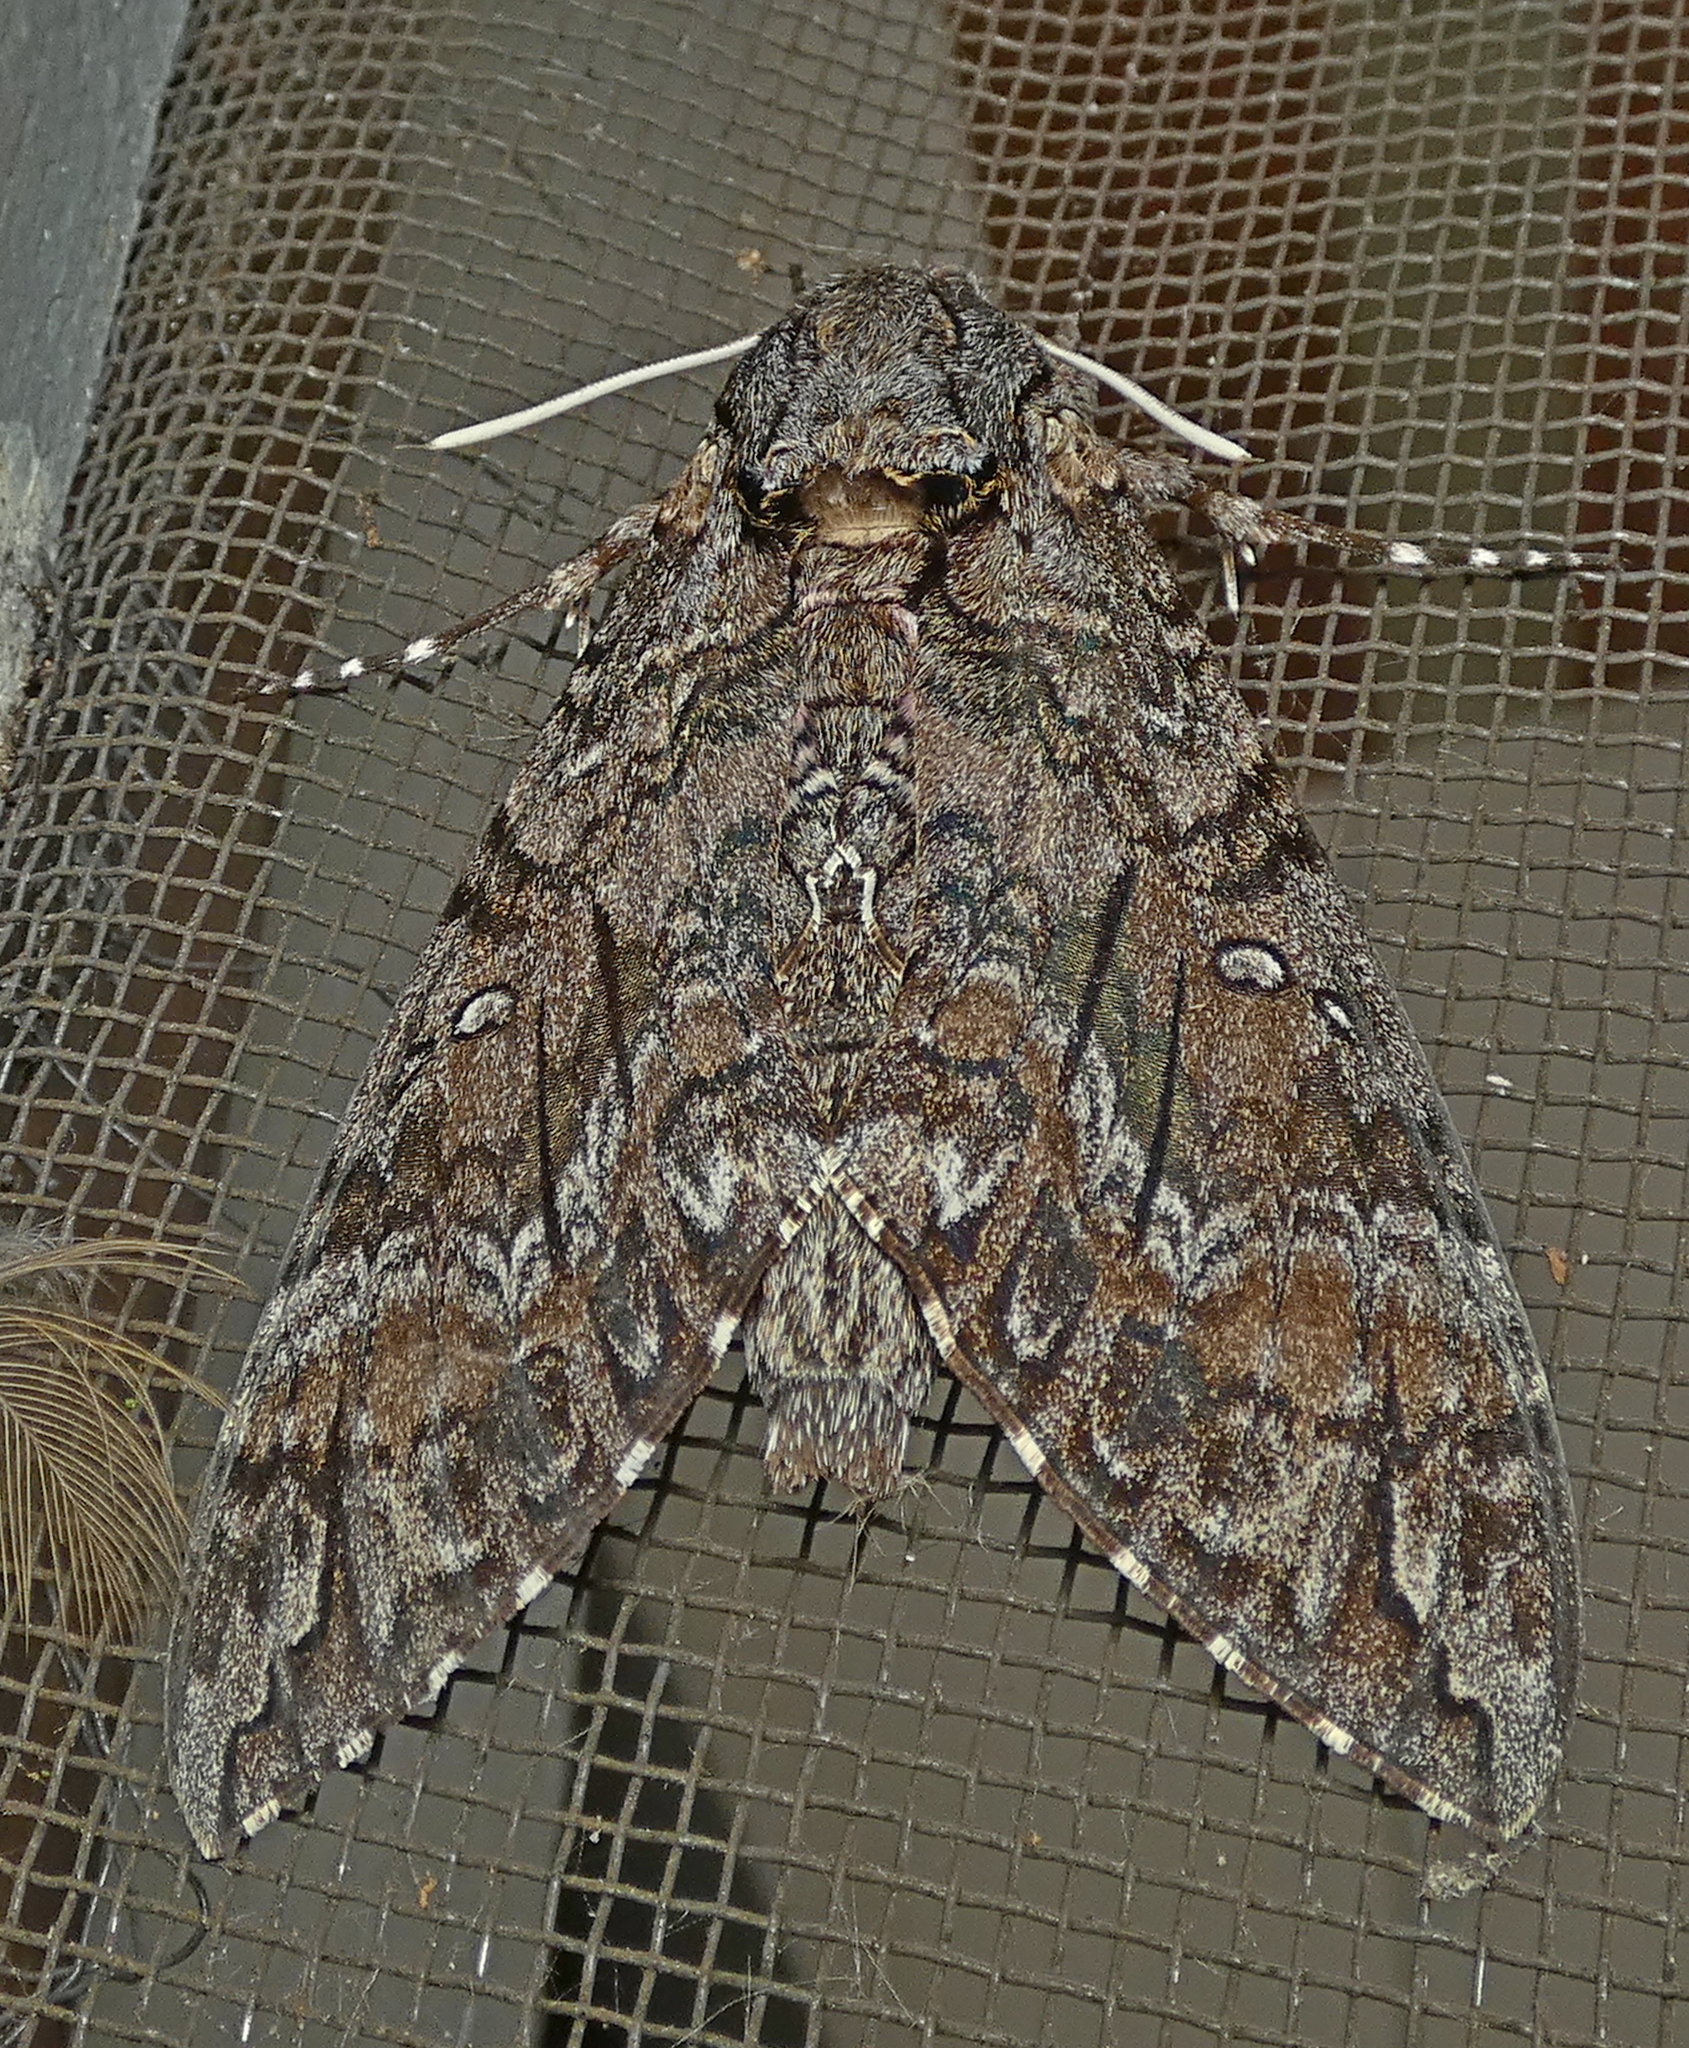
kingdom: Animalia
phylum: Arthropoda
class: Insecta
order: Lepidoptera
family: Sphingidae
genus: Agrius
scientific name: Agrius cingulata
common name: Pink-spotted hawkmoth
